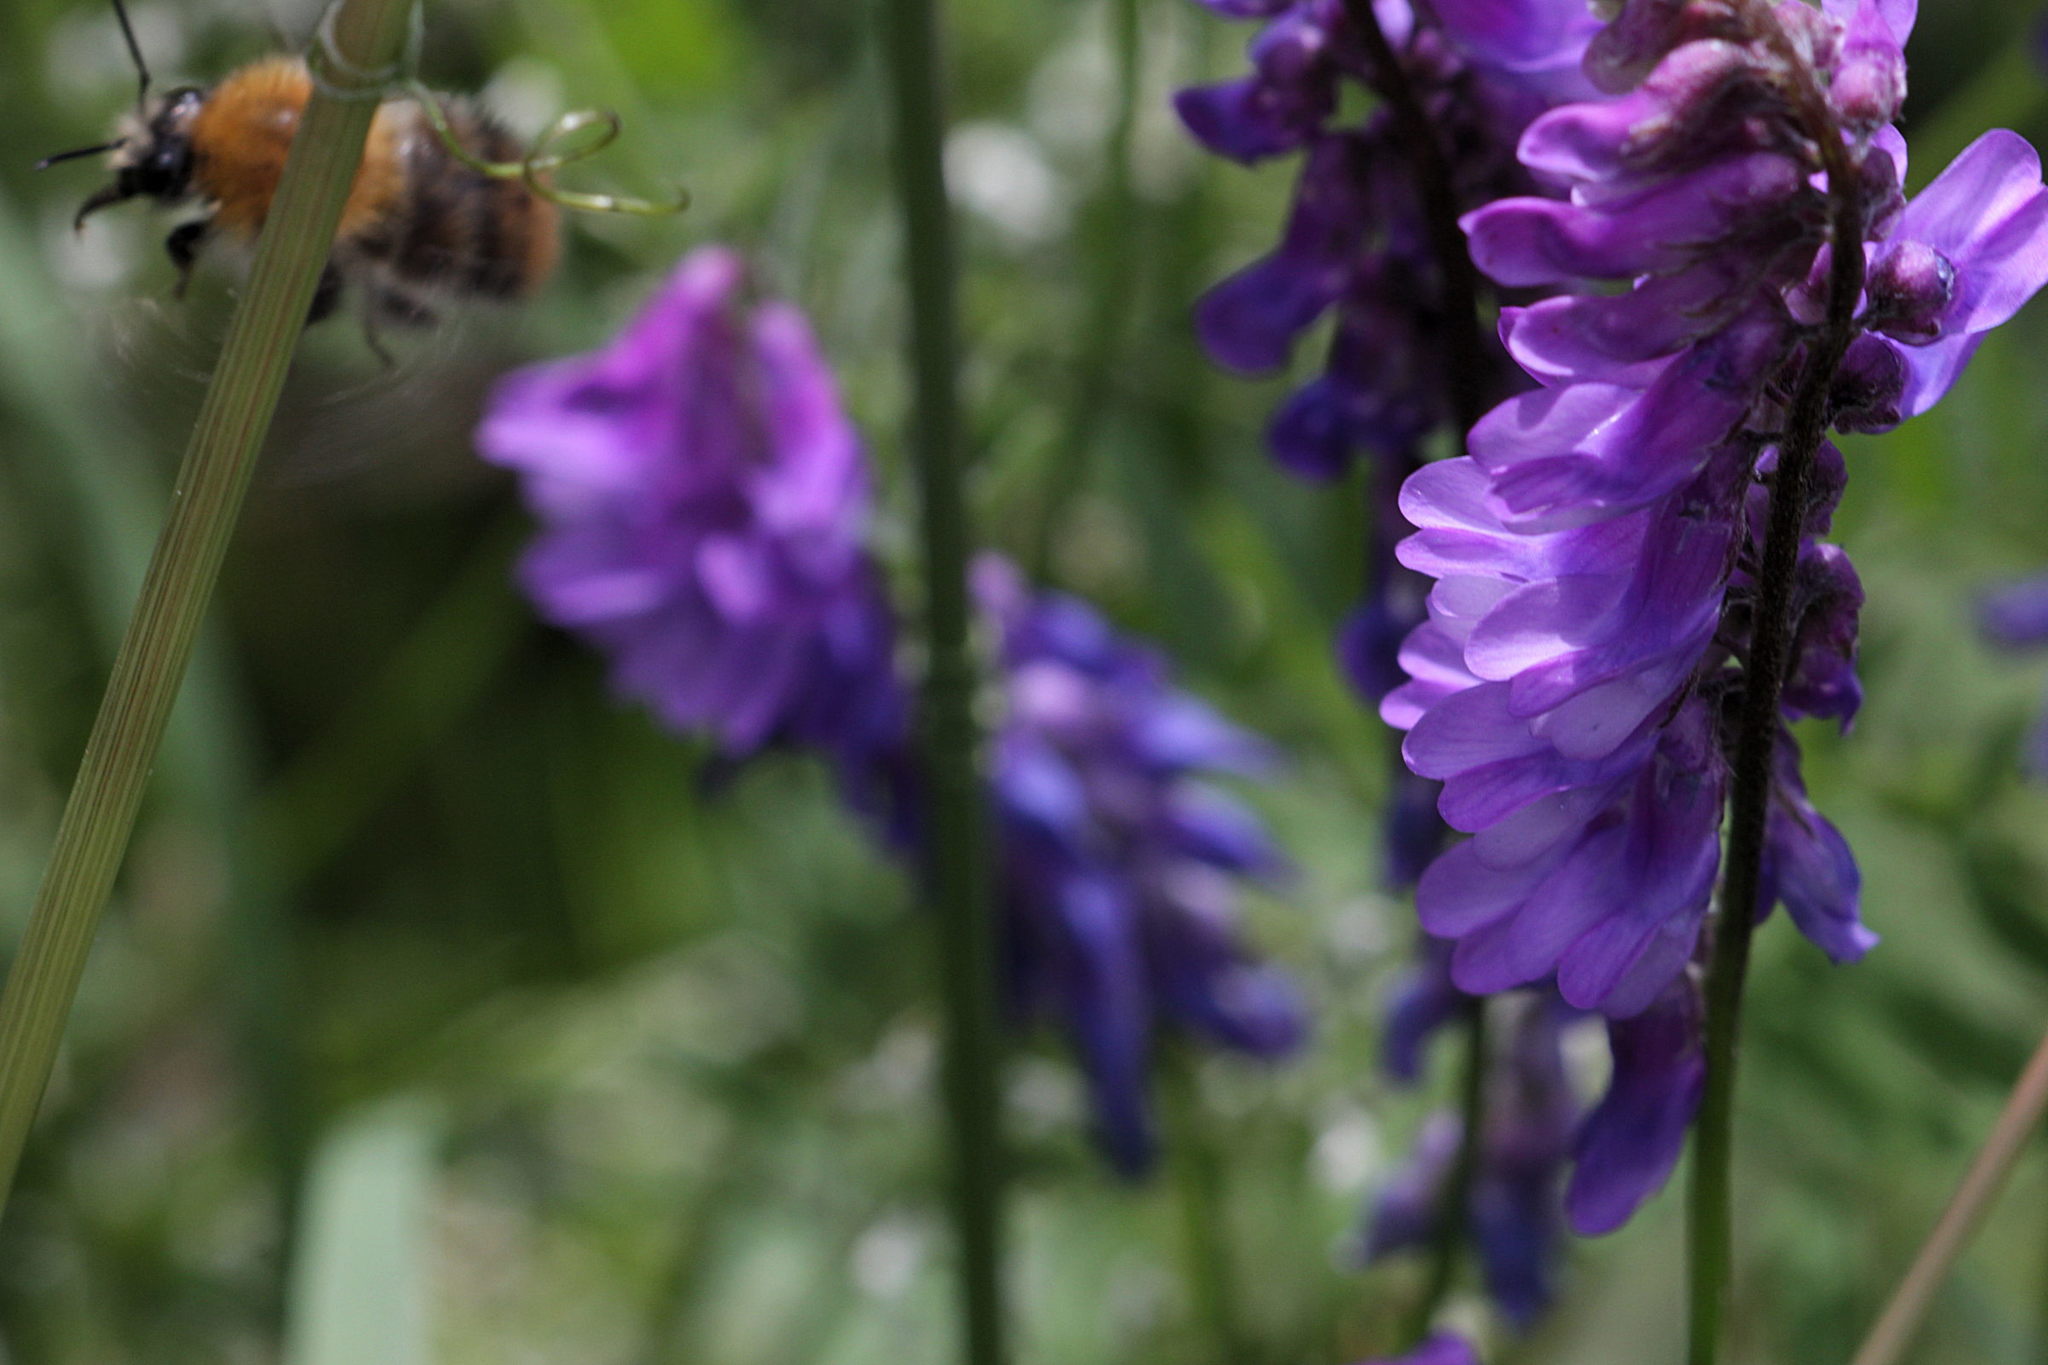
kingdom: Plantae
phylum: Tracheophyta
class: Magnoliopsida
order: Fabales
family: Fabaceae
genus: Vicia
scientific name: Vicia cracca
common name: Bird vetch
